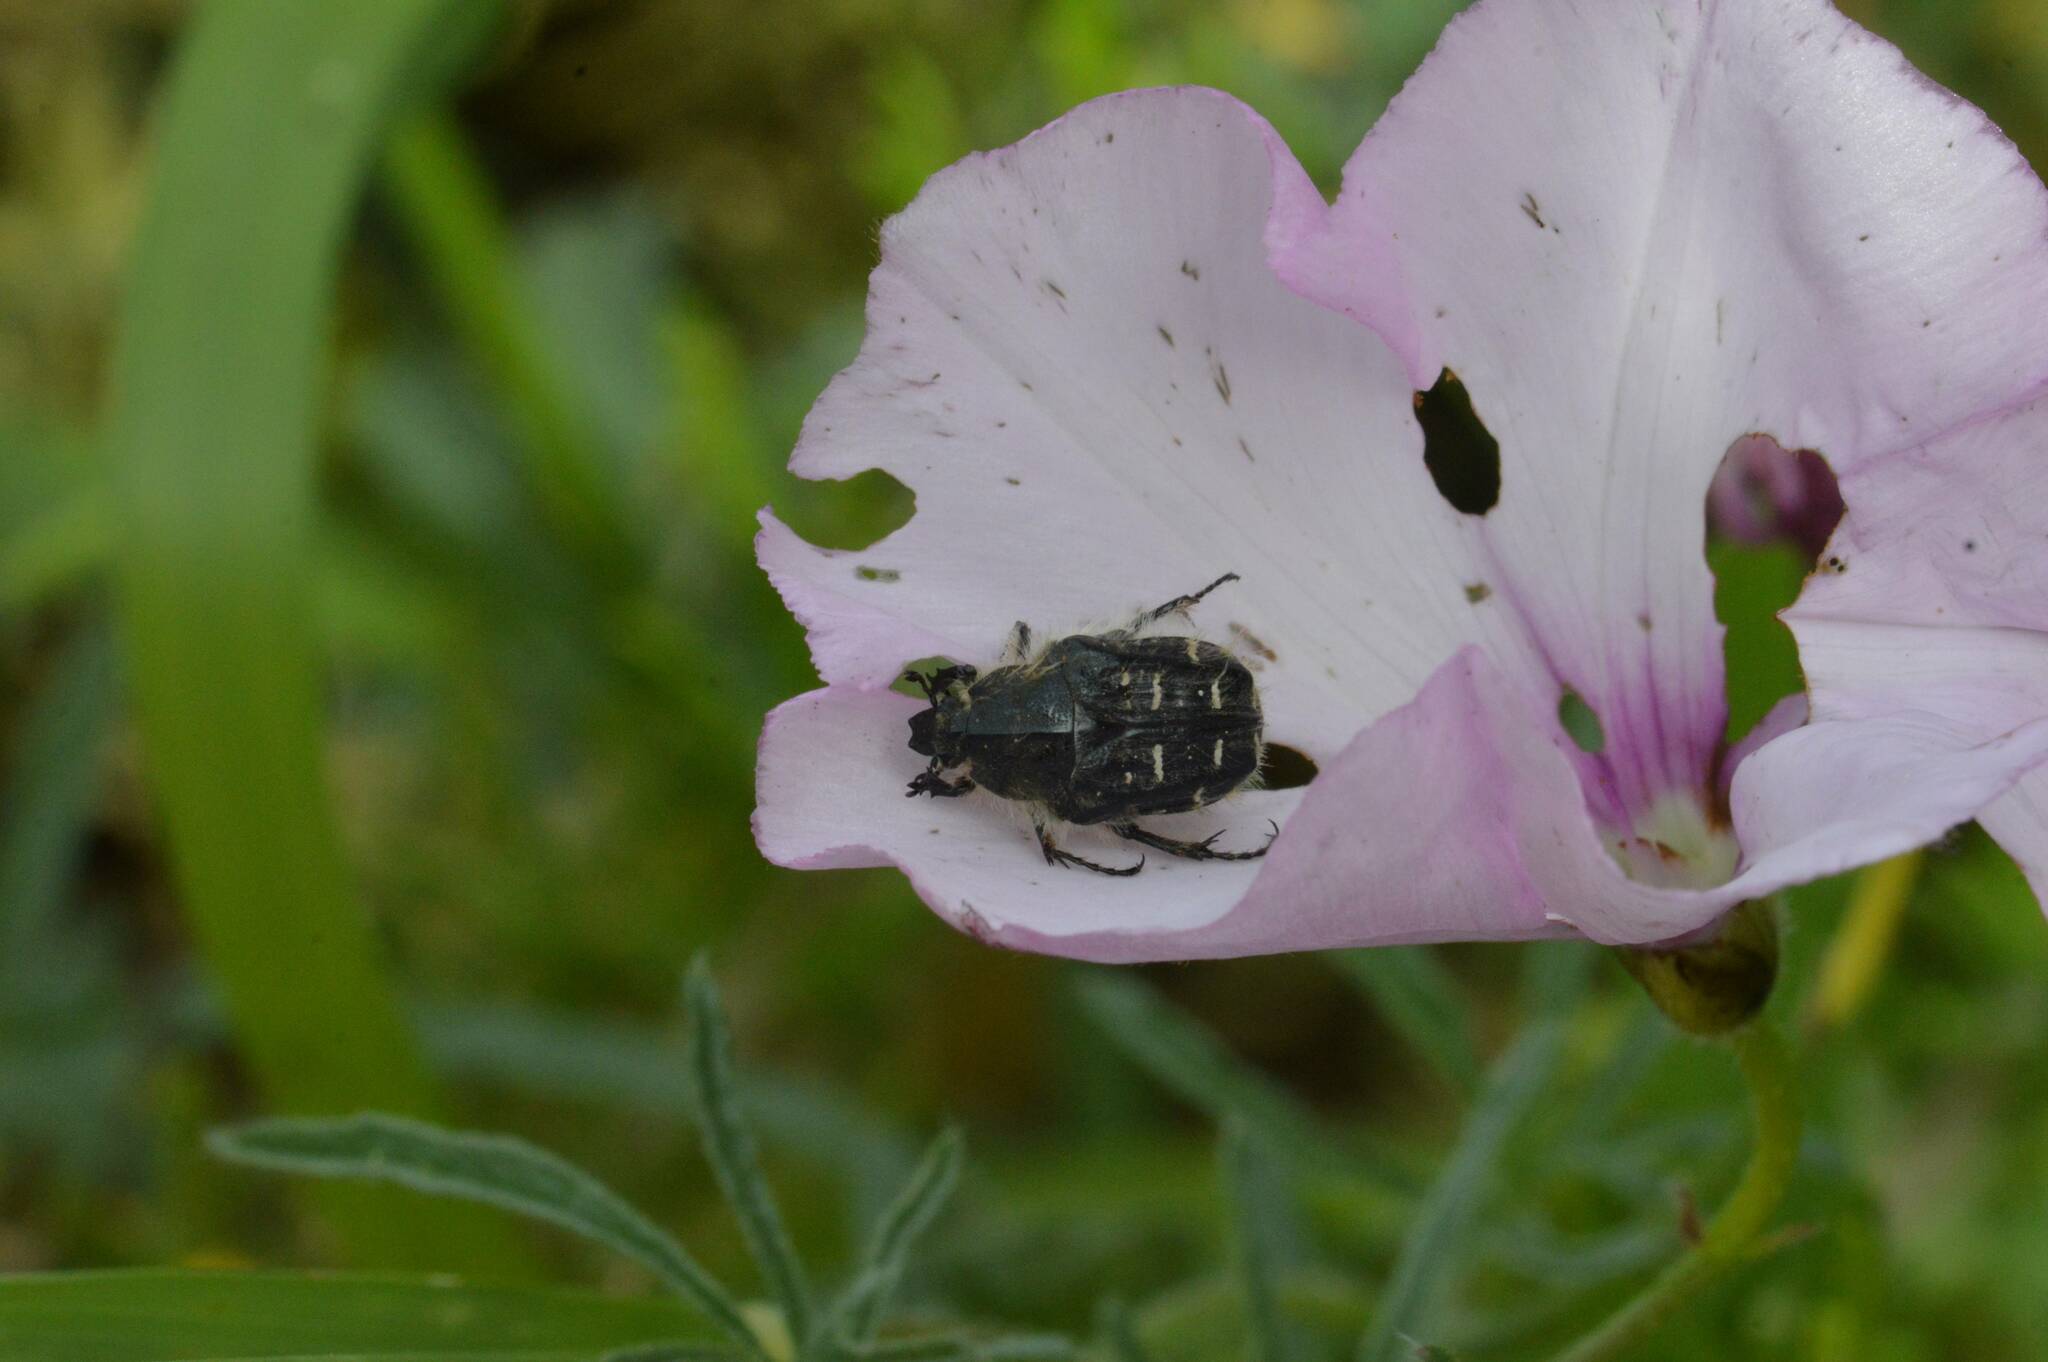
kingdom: Animalia
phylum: Arthropoda
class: Insecta
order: Coleoptera
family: Scarabaeidae
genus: Tropinota
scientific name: Tropinota squalida
